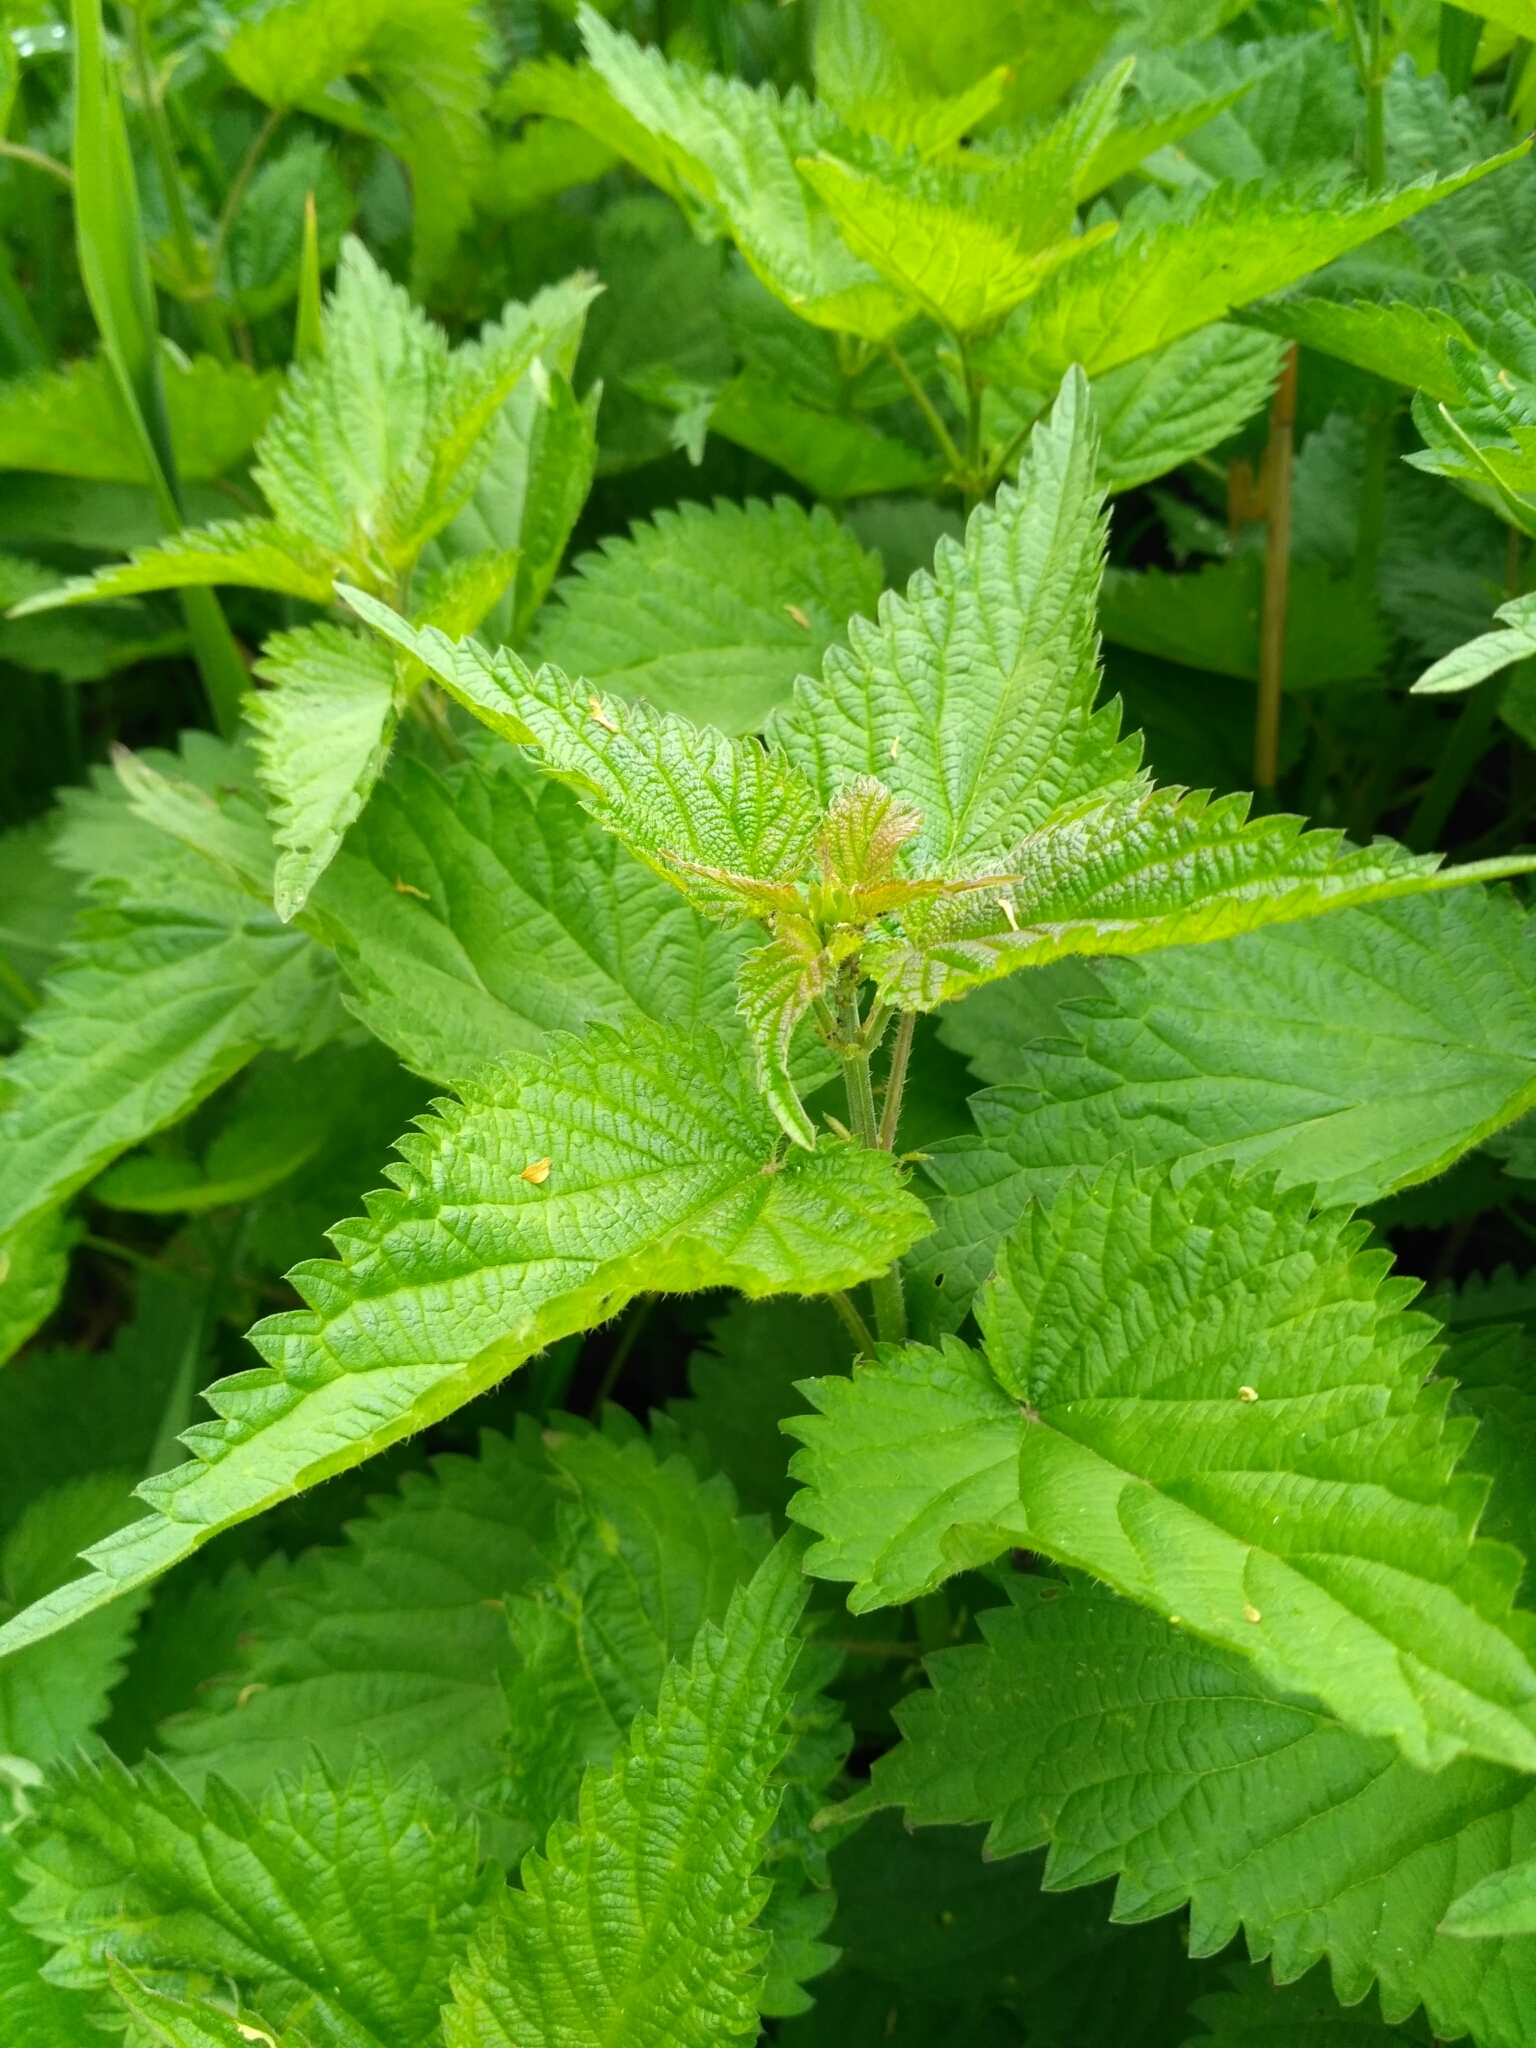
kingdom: Plantae
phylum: Tracheophyta
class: Magnoliopsida
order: Rosales
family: Urticaceae
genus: Urtica
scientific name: Urtica dioica
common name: Common nettle
